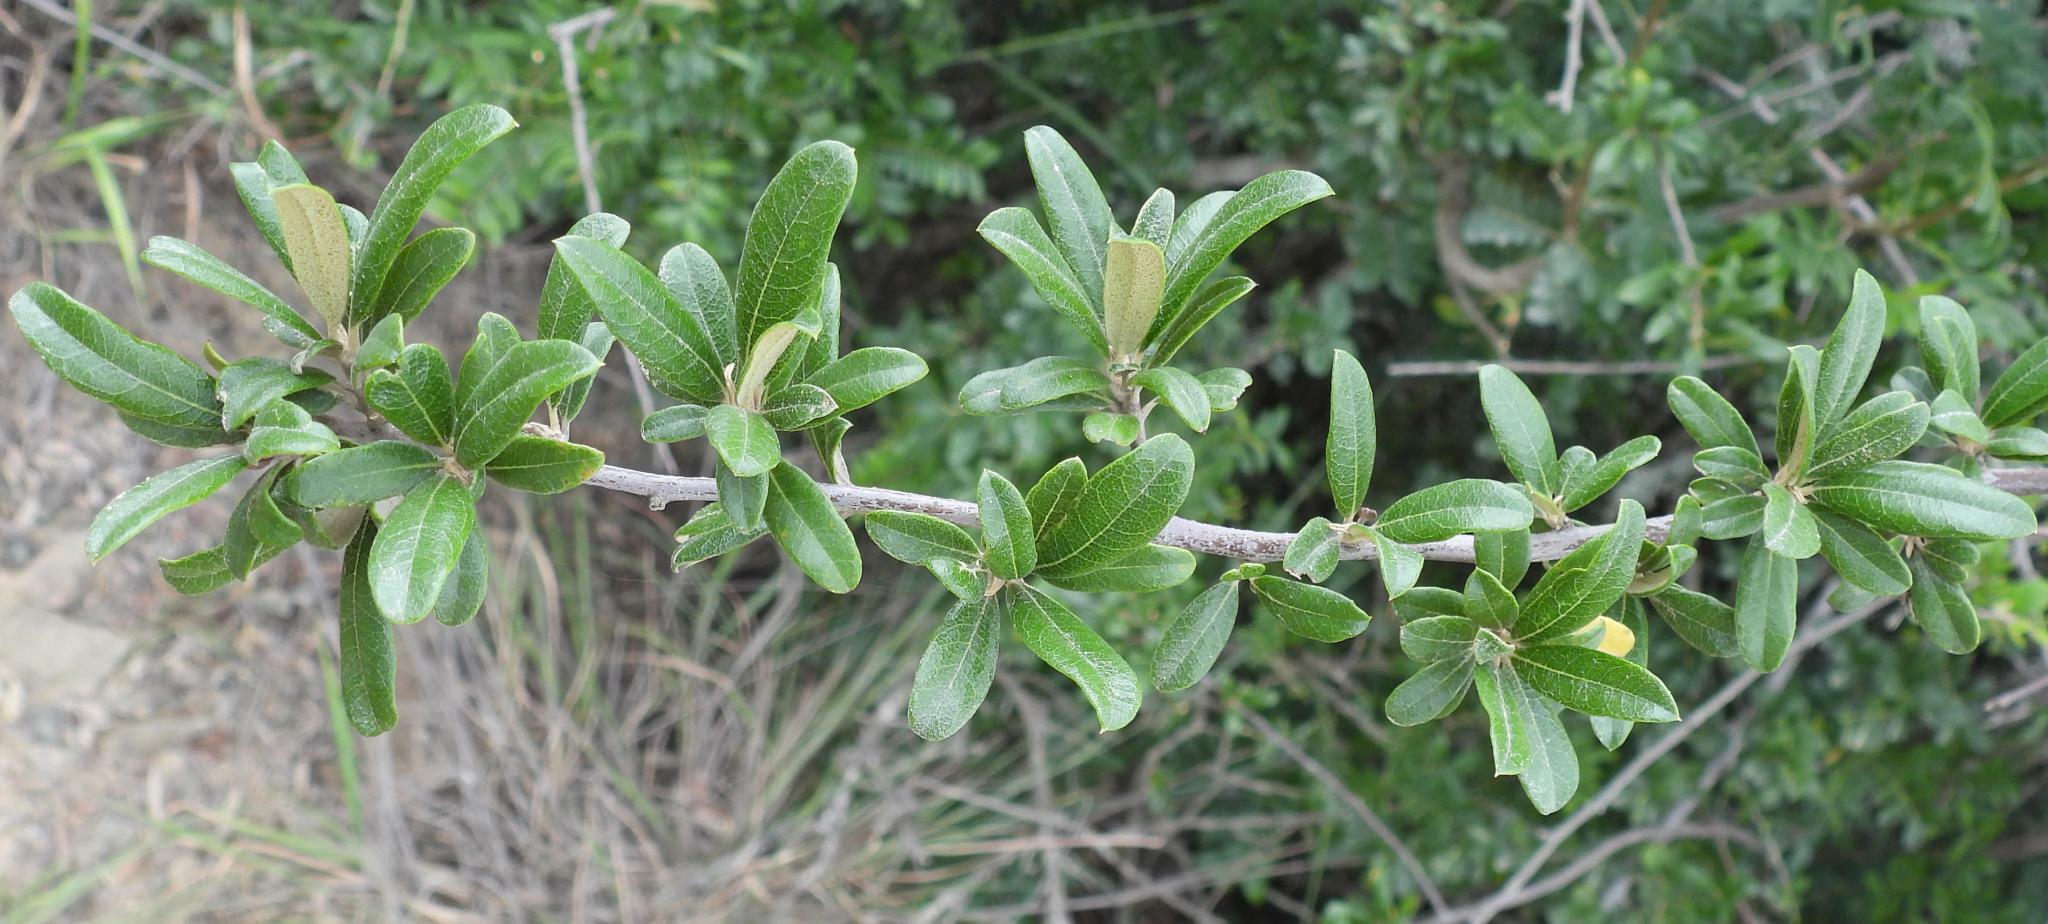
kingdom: Plantae
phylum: Tracheophyta
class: Magnoliopsida
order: Asterales
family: Asteraceae
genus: Brachylaena
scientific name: Brachylaena ilicifolia
